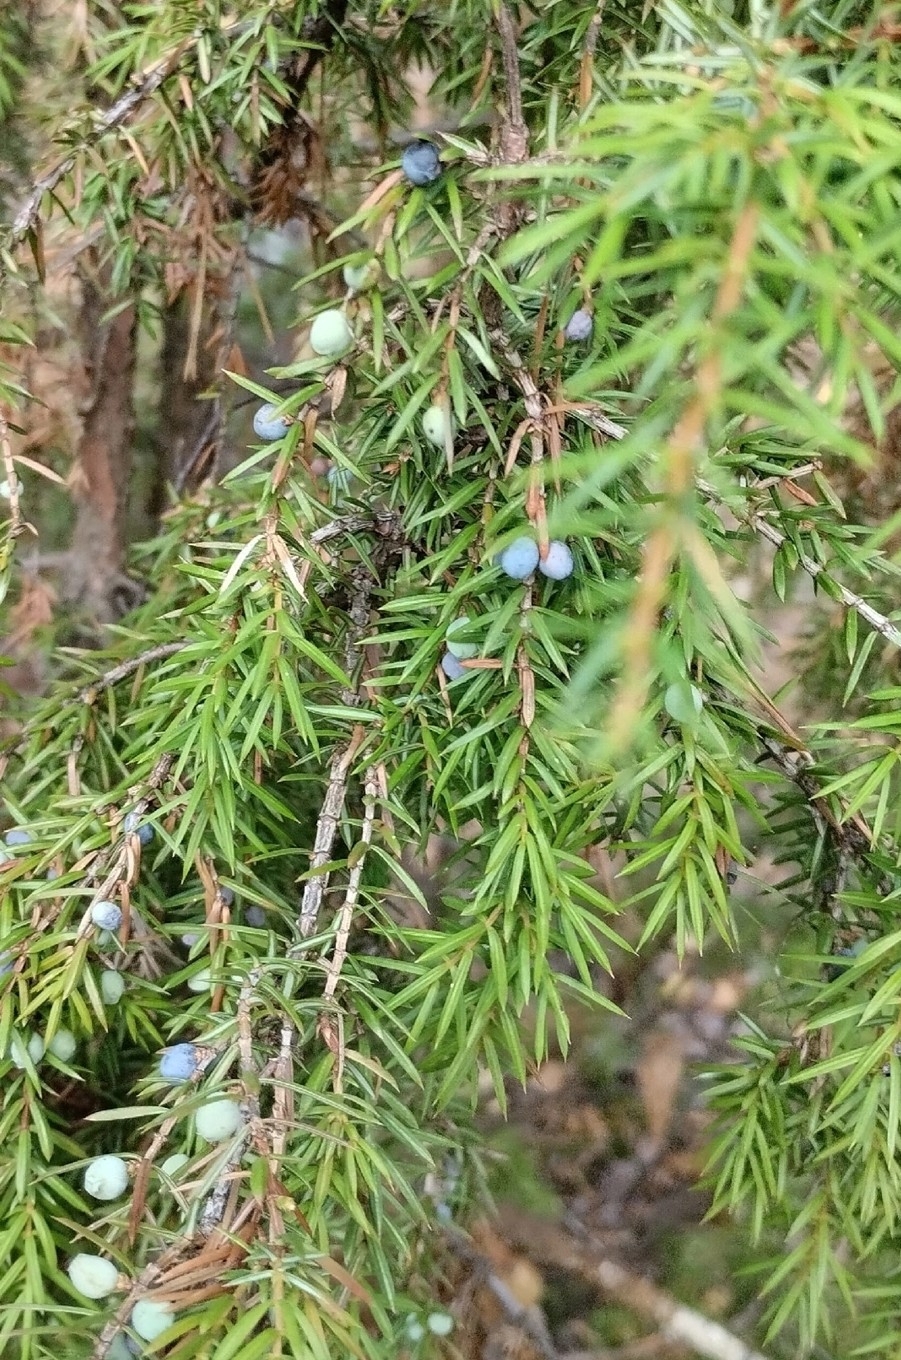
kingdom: Plantae
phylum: Tracheophyta
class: Pinopsida
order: Pinales
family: Cupressaceae
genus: Juniperus
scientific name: Juniperus communis
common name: Common juniper
